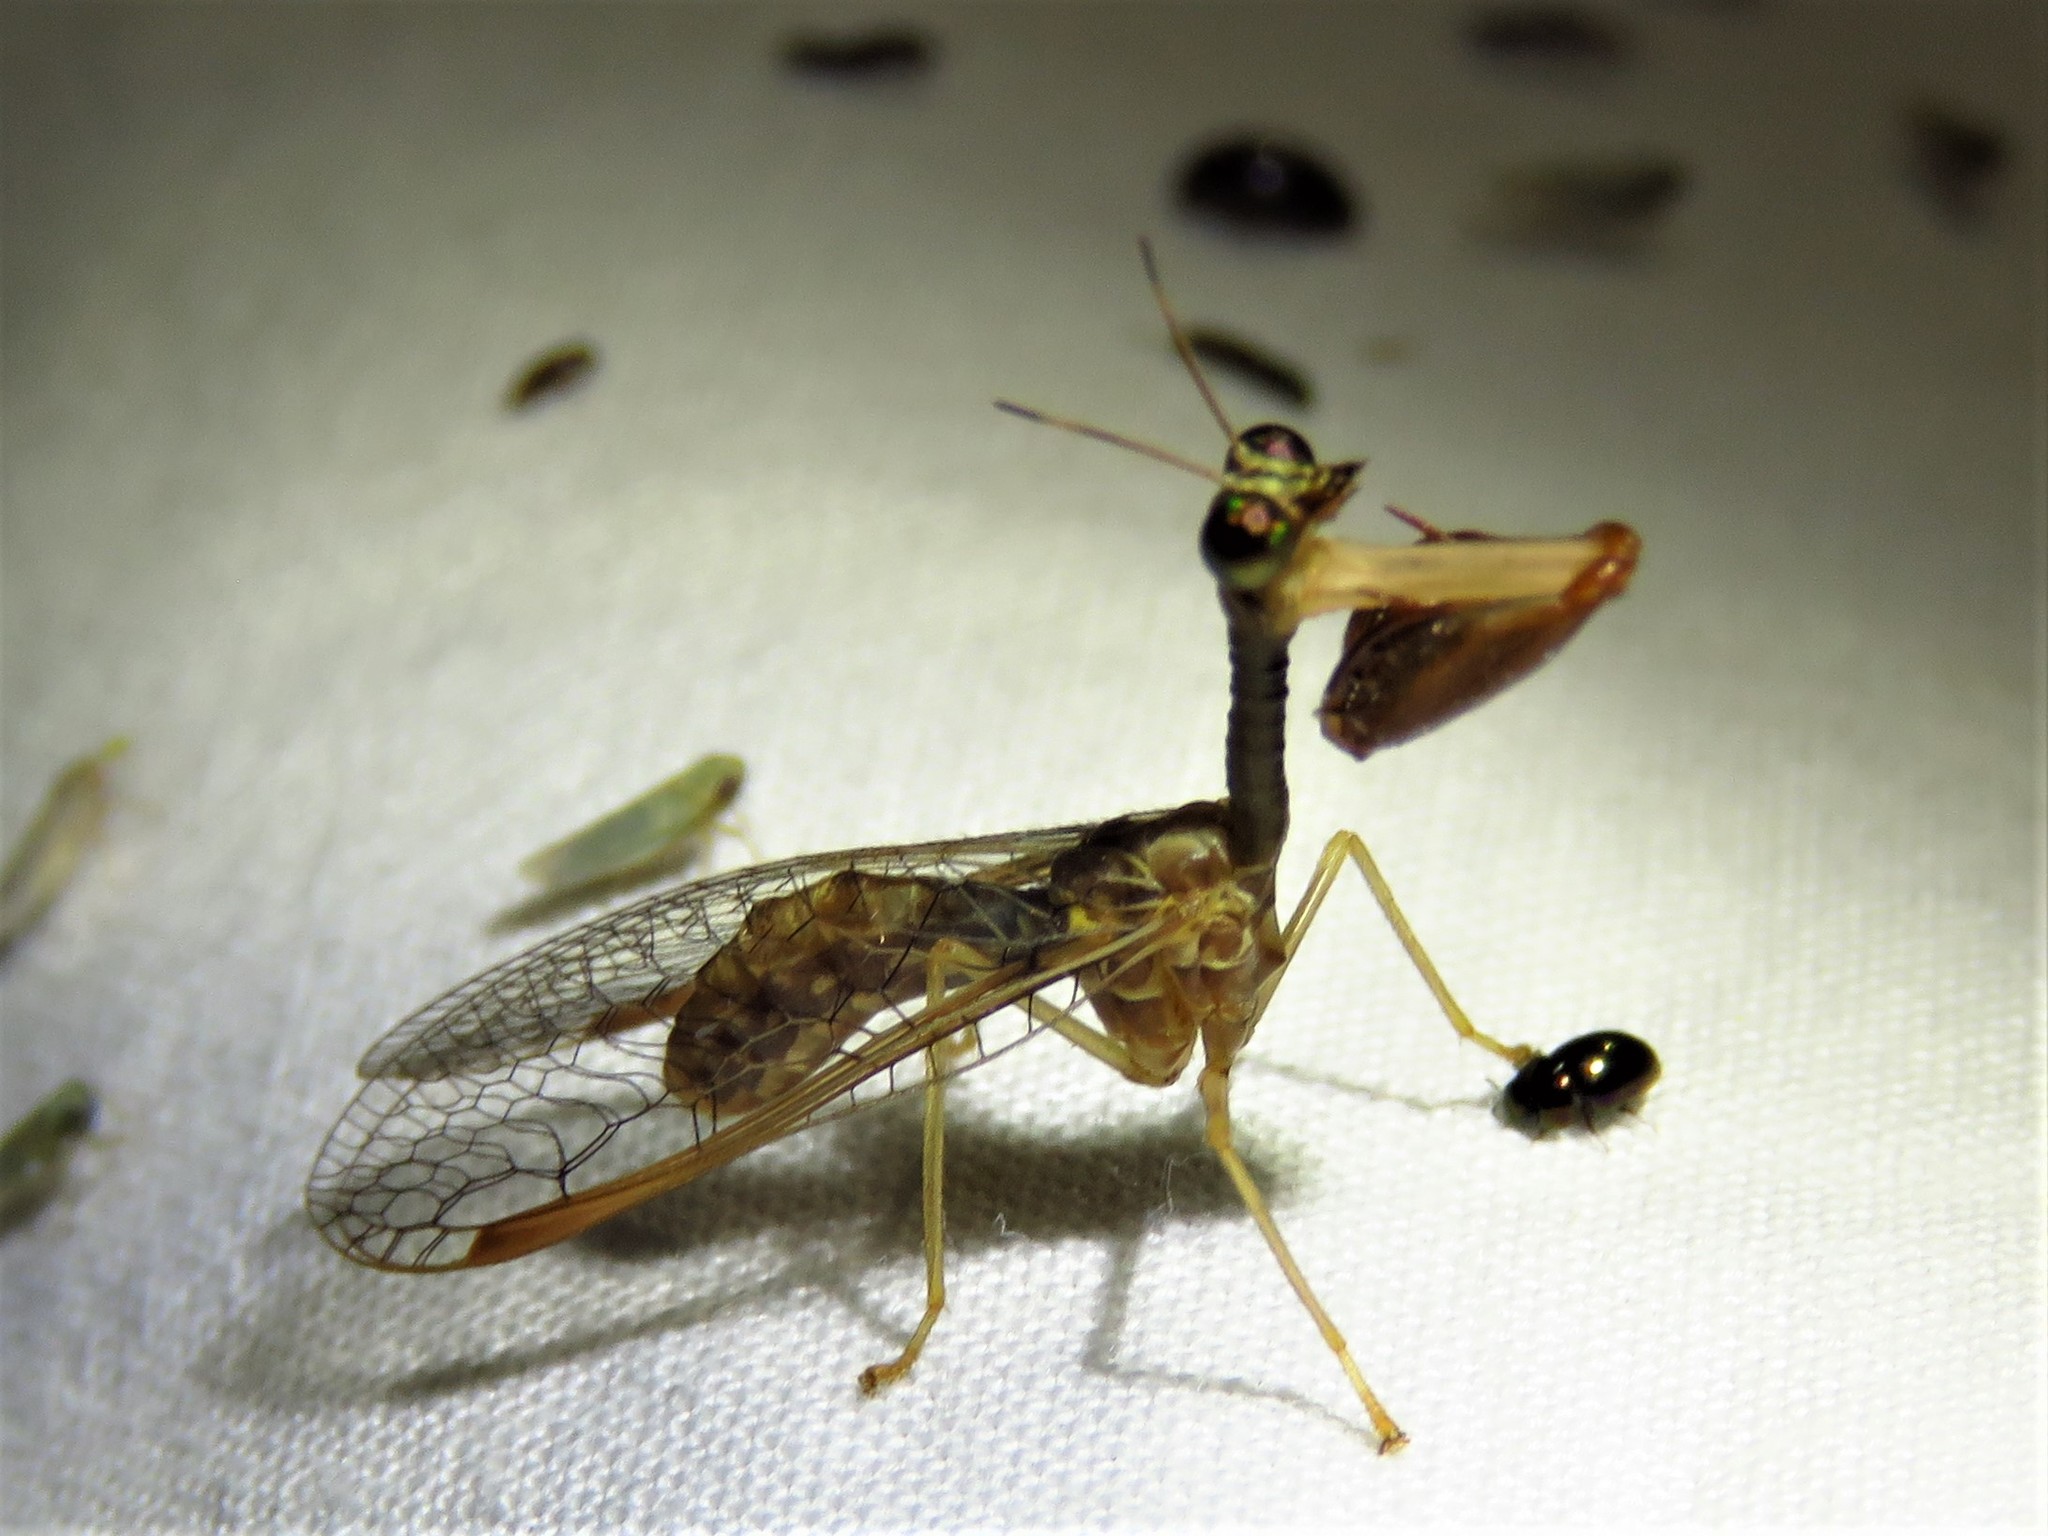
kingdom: Animalia
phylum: Arthropoda
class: Insecta
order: Neuroptera
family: Mantispidae
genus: Dicromantispa
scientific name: Dicromantispa sayi
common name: Say's mantidfly
